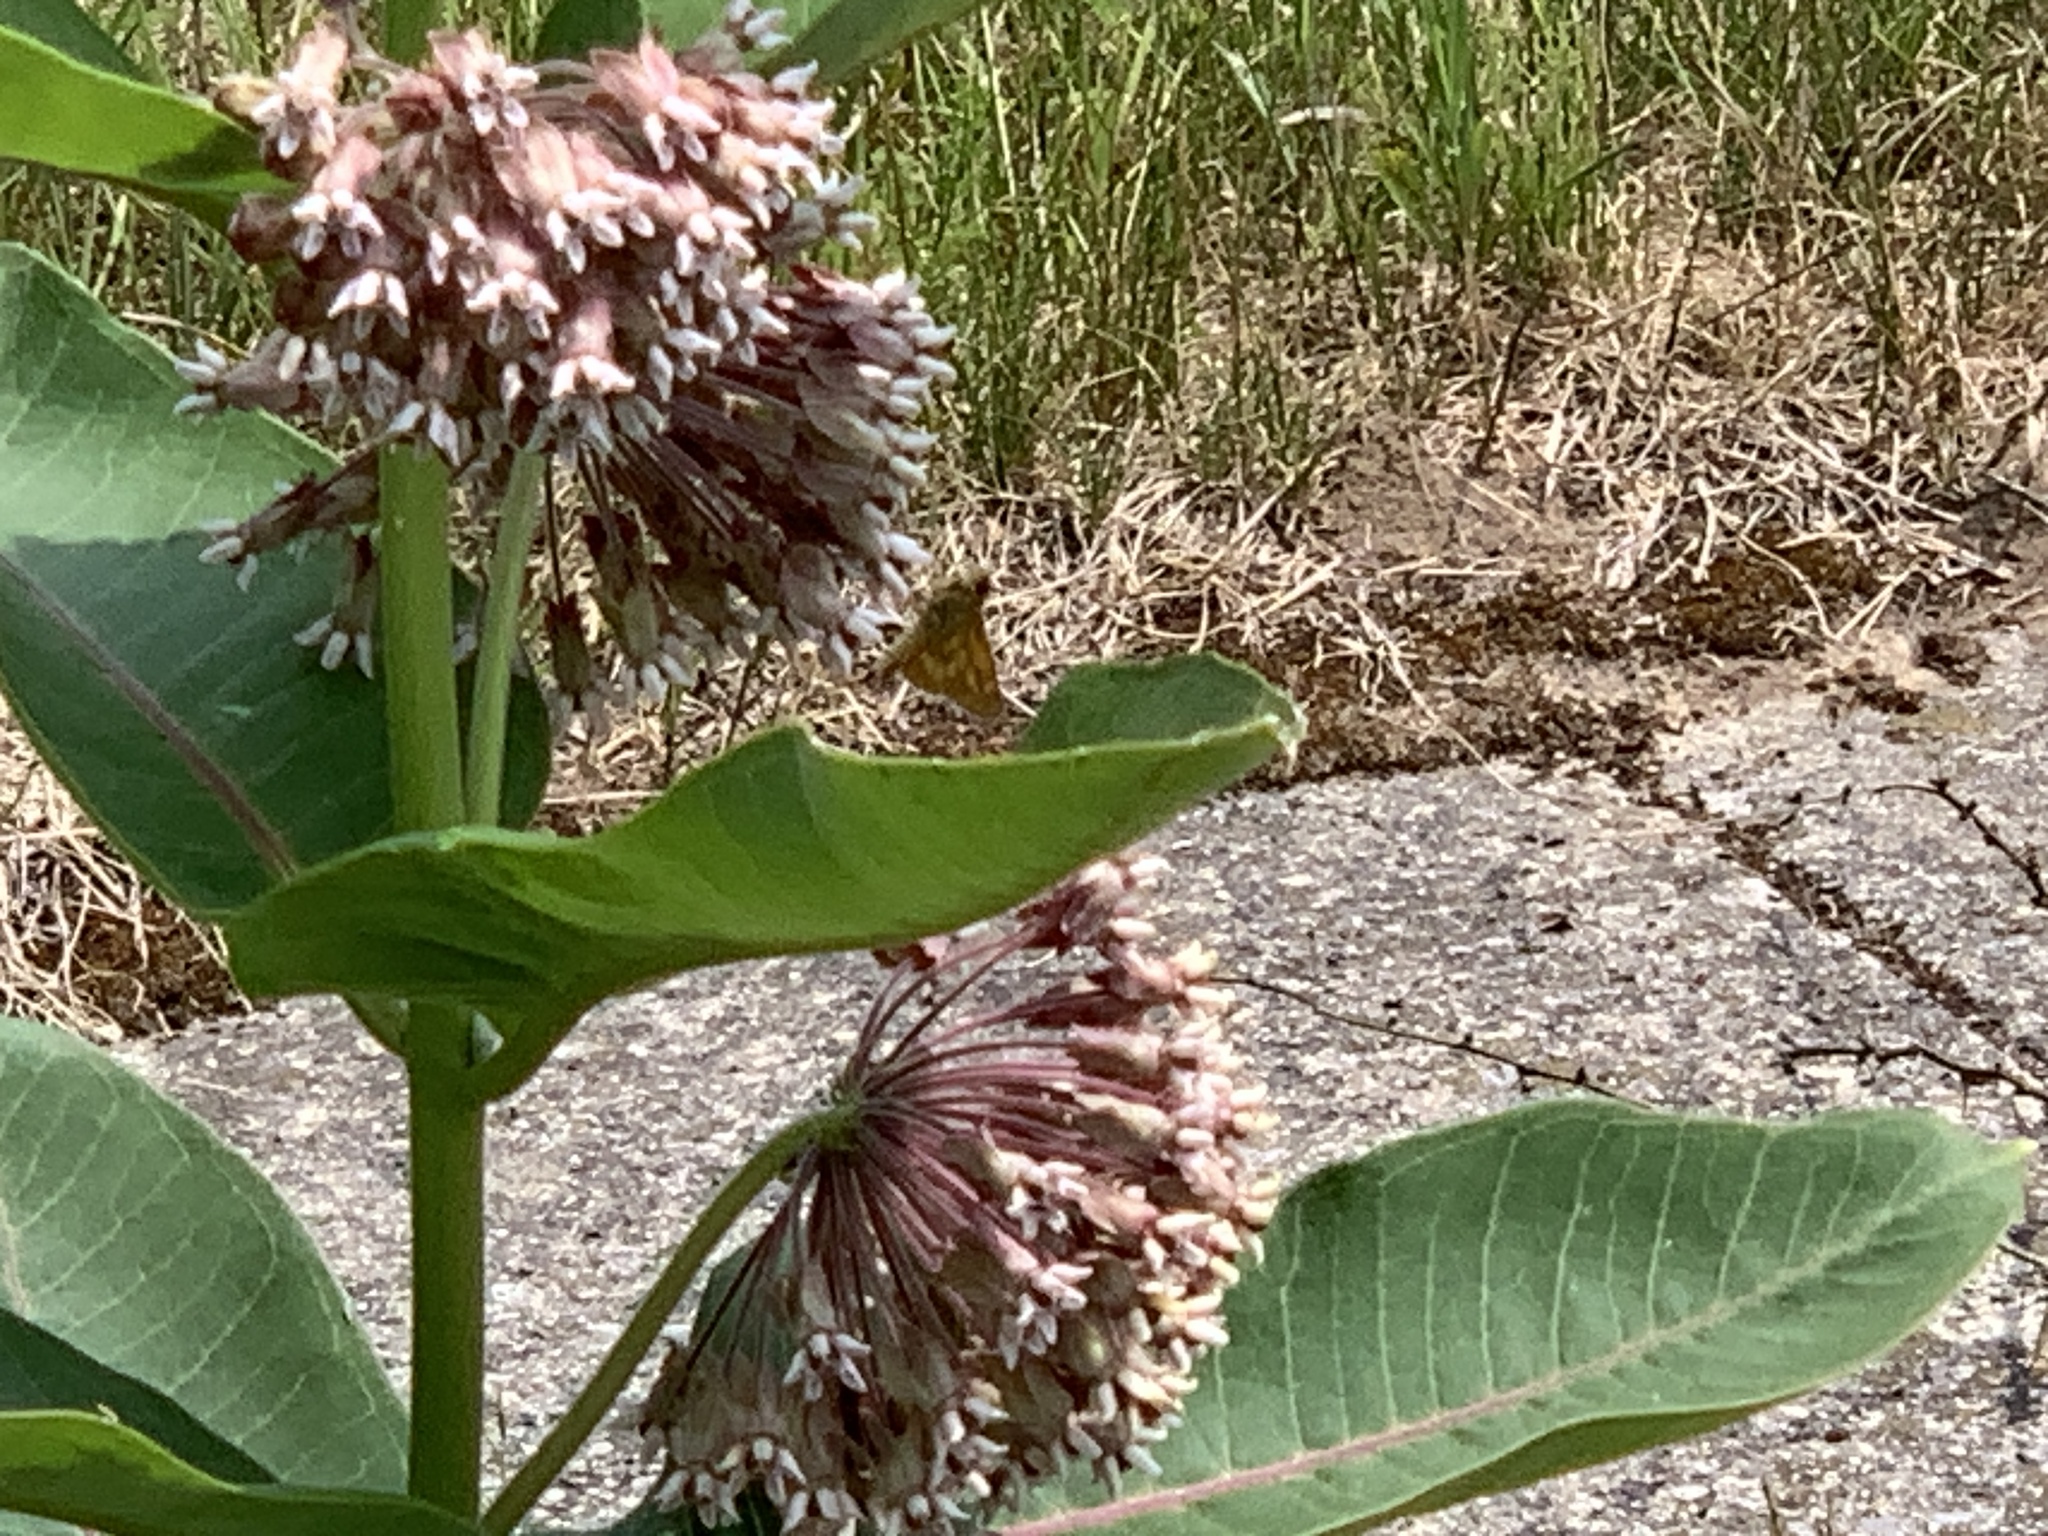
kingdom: Animalia
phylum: Arthropoda
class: Insecta
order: Lepidoptera
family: Hesperiidae
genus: Polites
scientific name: Polites mystic
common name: Long dash
